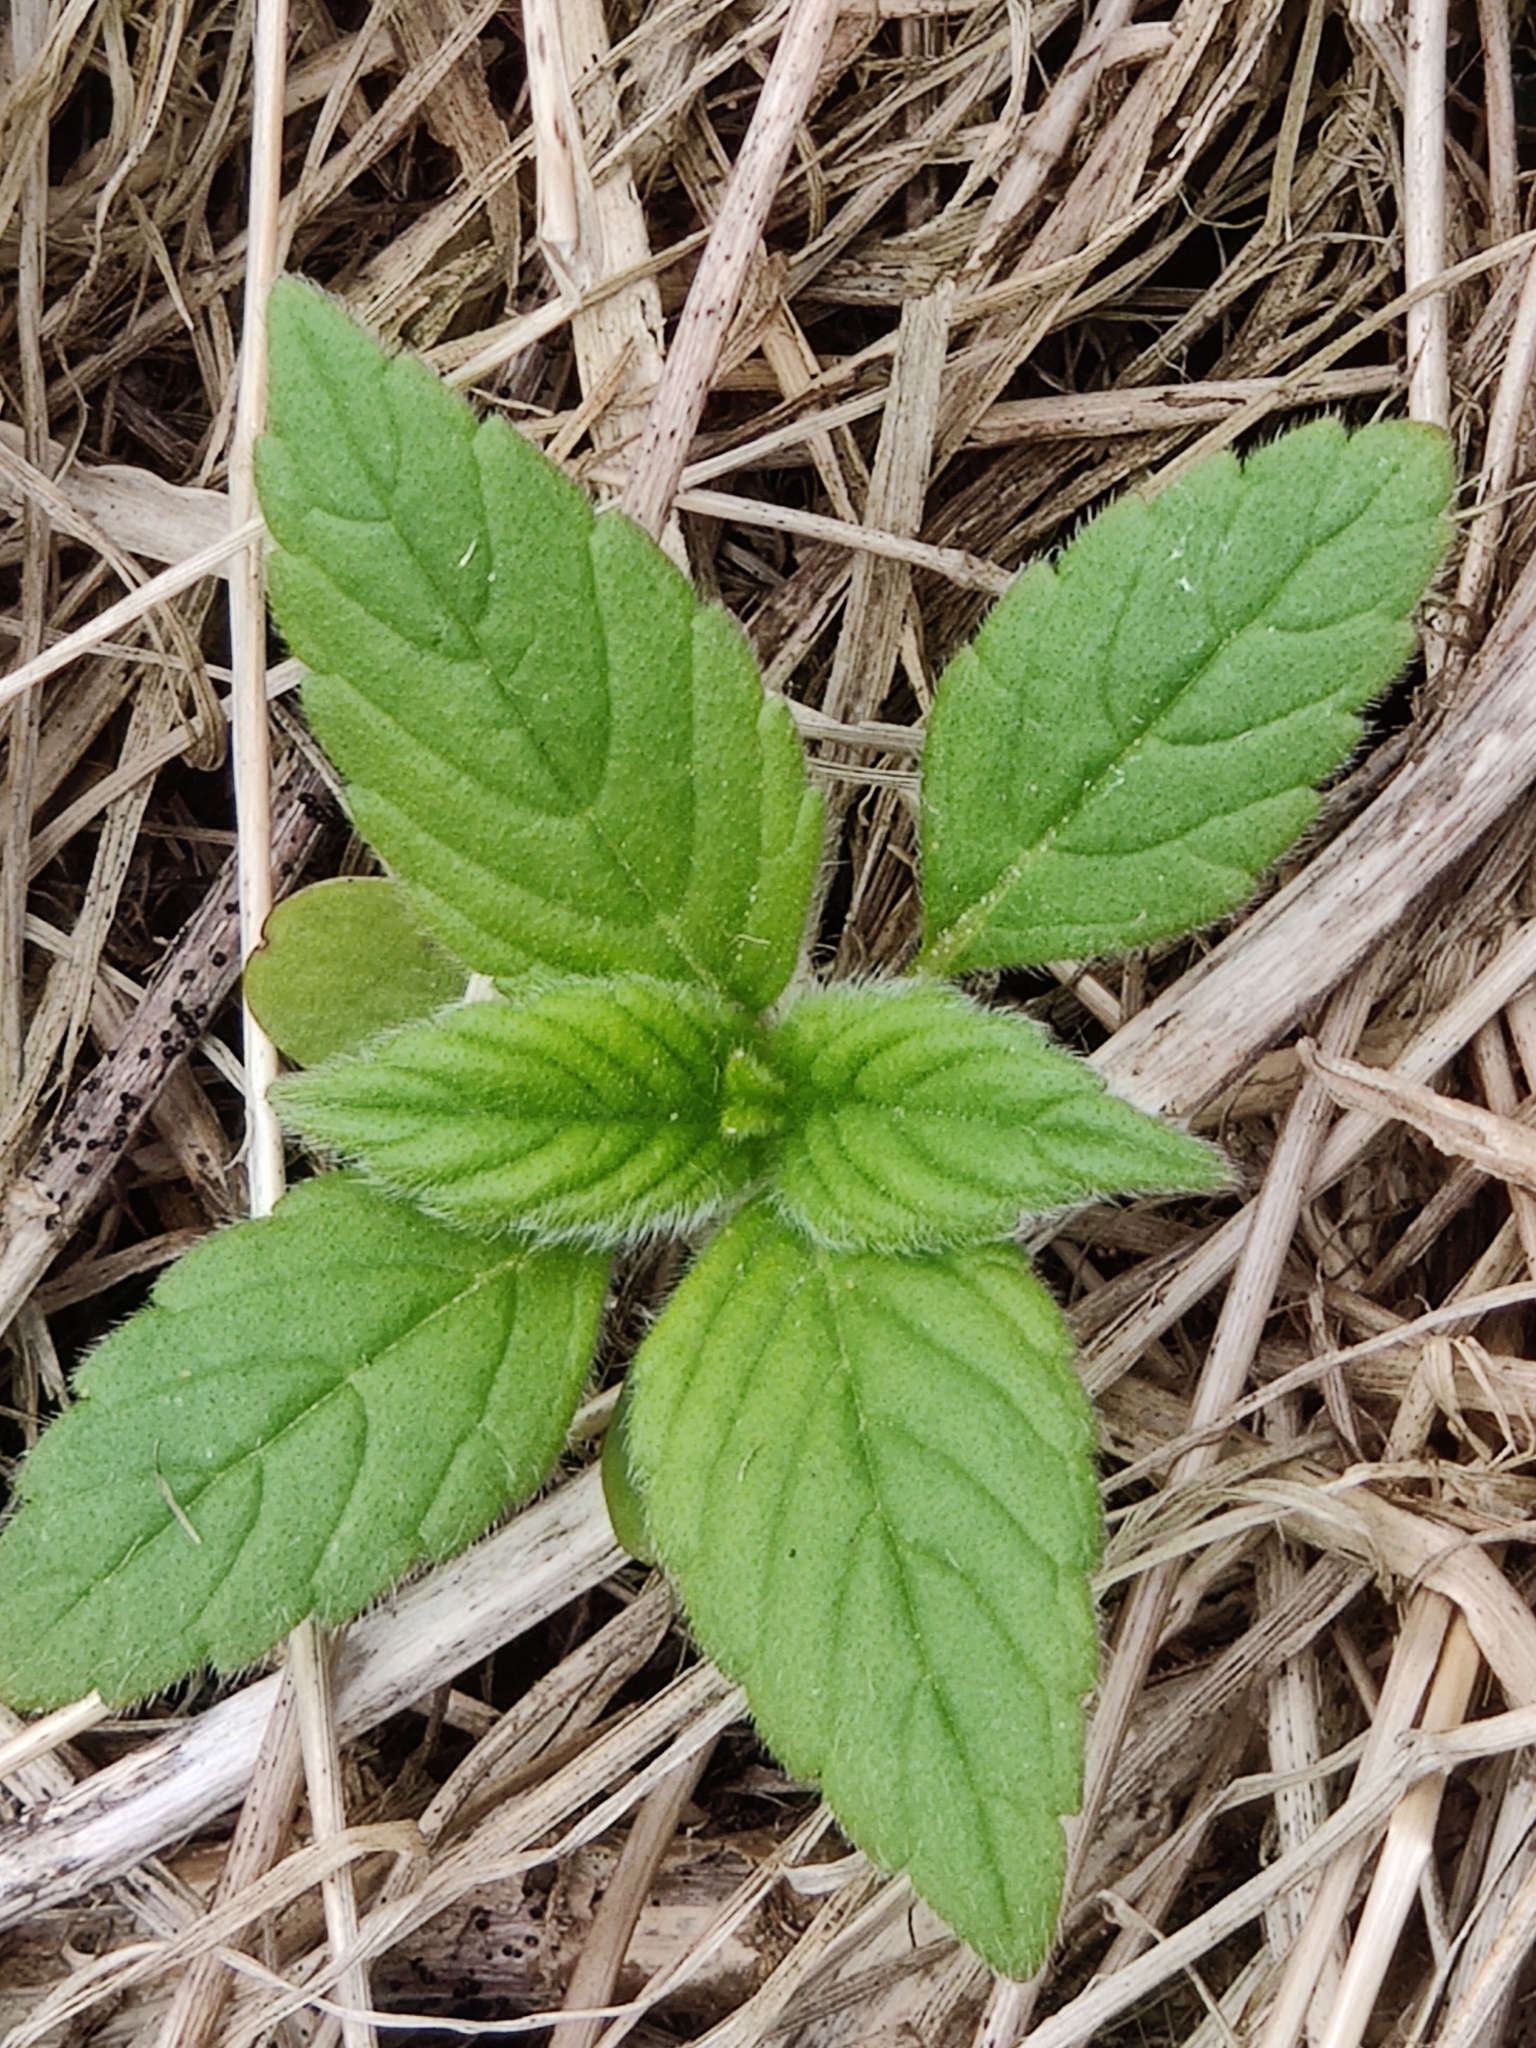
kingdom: Plantae
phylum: Tracheophyta
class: Magnoliopsida
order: Lamiales
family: Lamiaceae
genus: Galeopsis
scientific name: Galeopsis tetrahit
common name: Common hemp-nettle
